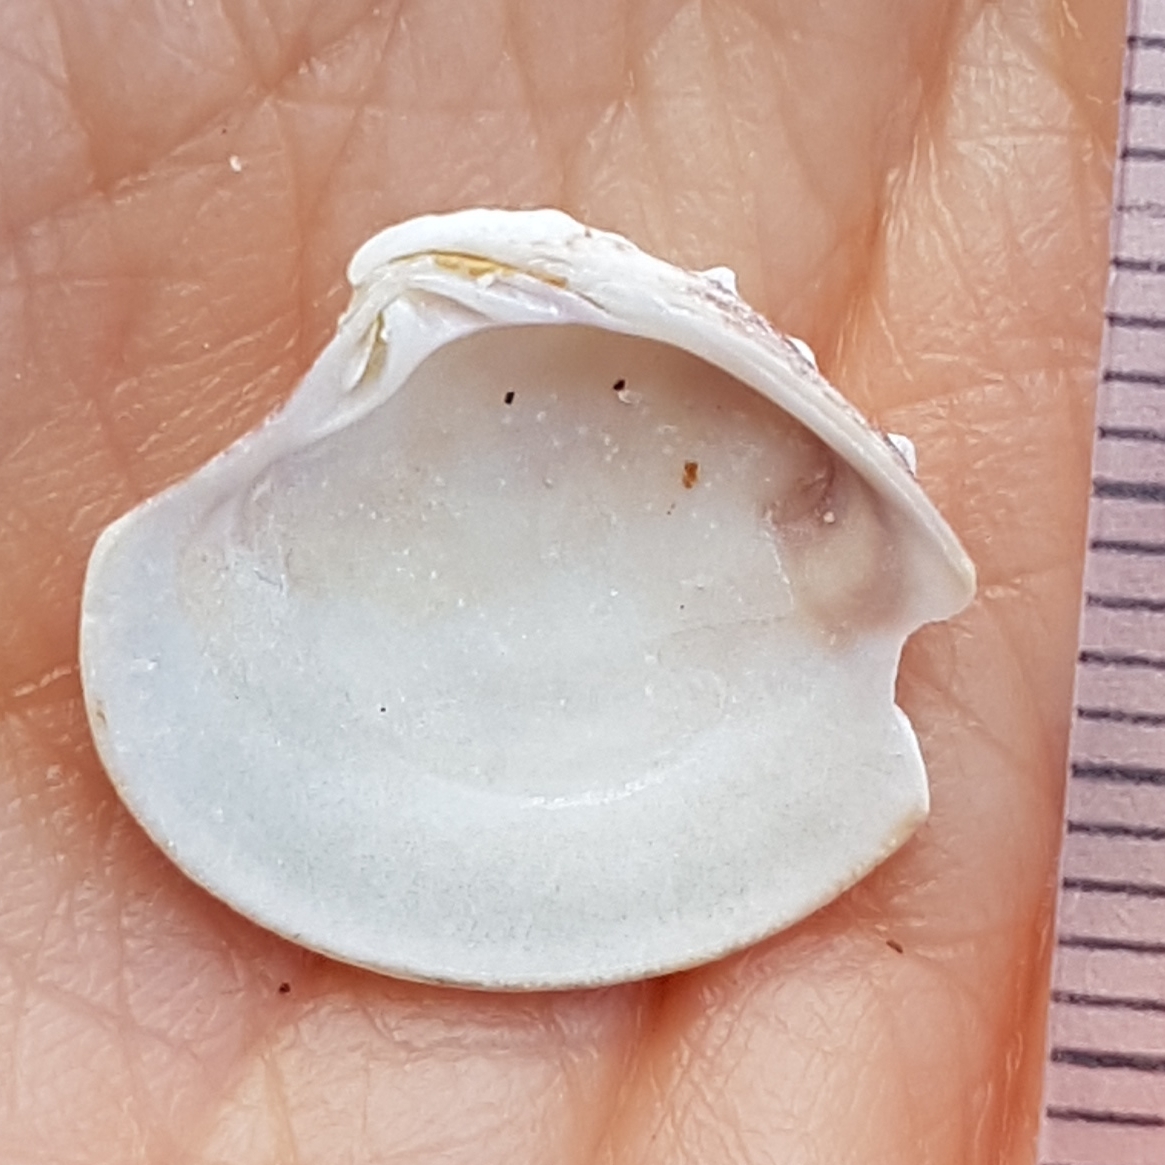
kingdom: Animalia
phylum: Mollusca
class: Bivalvia
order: Venerida
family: Veneridae
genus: Clausinella
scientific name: Clausinella fasciata
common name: Banded venus
